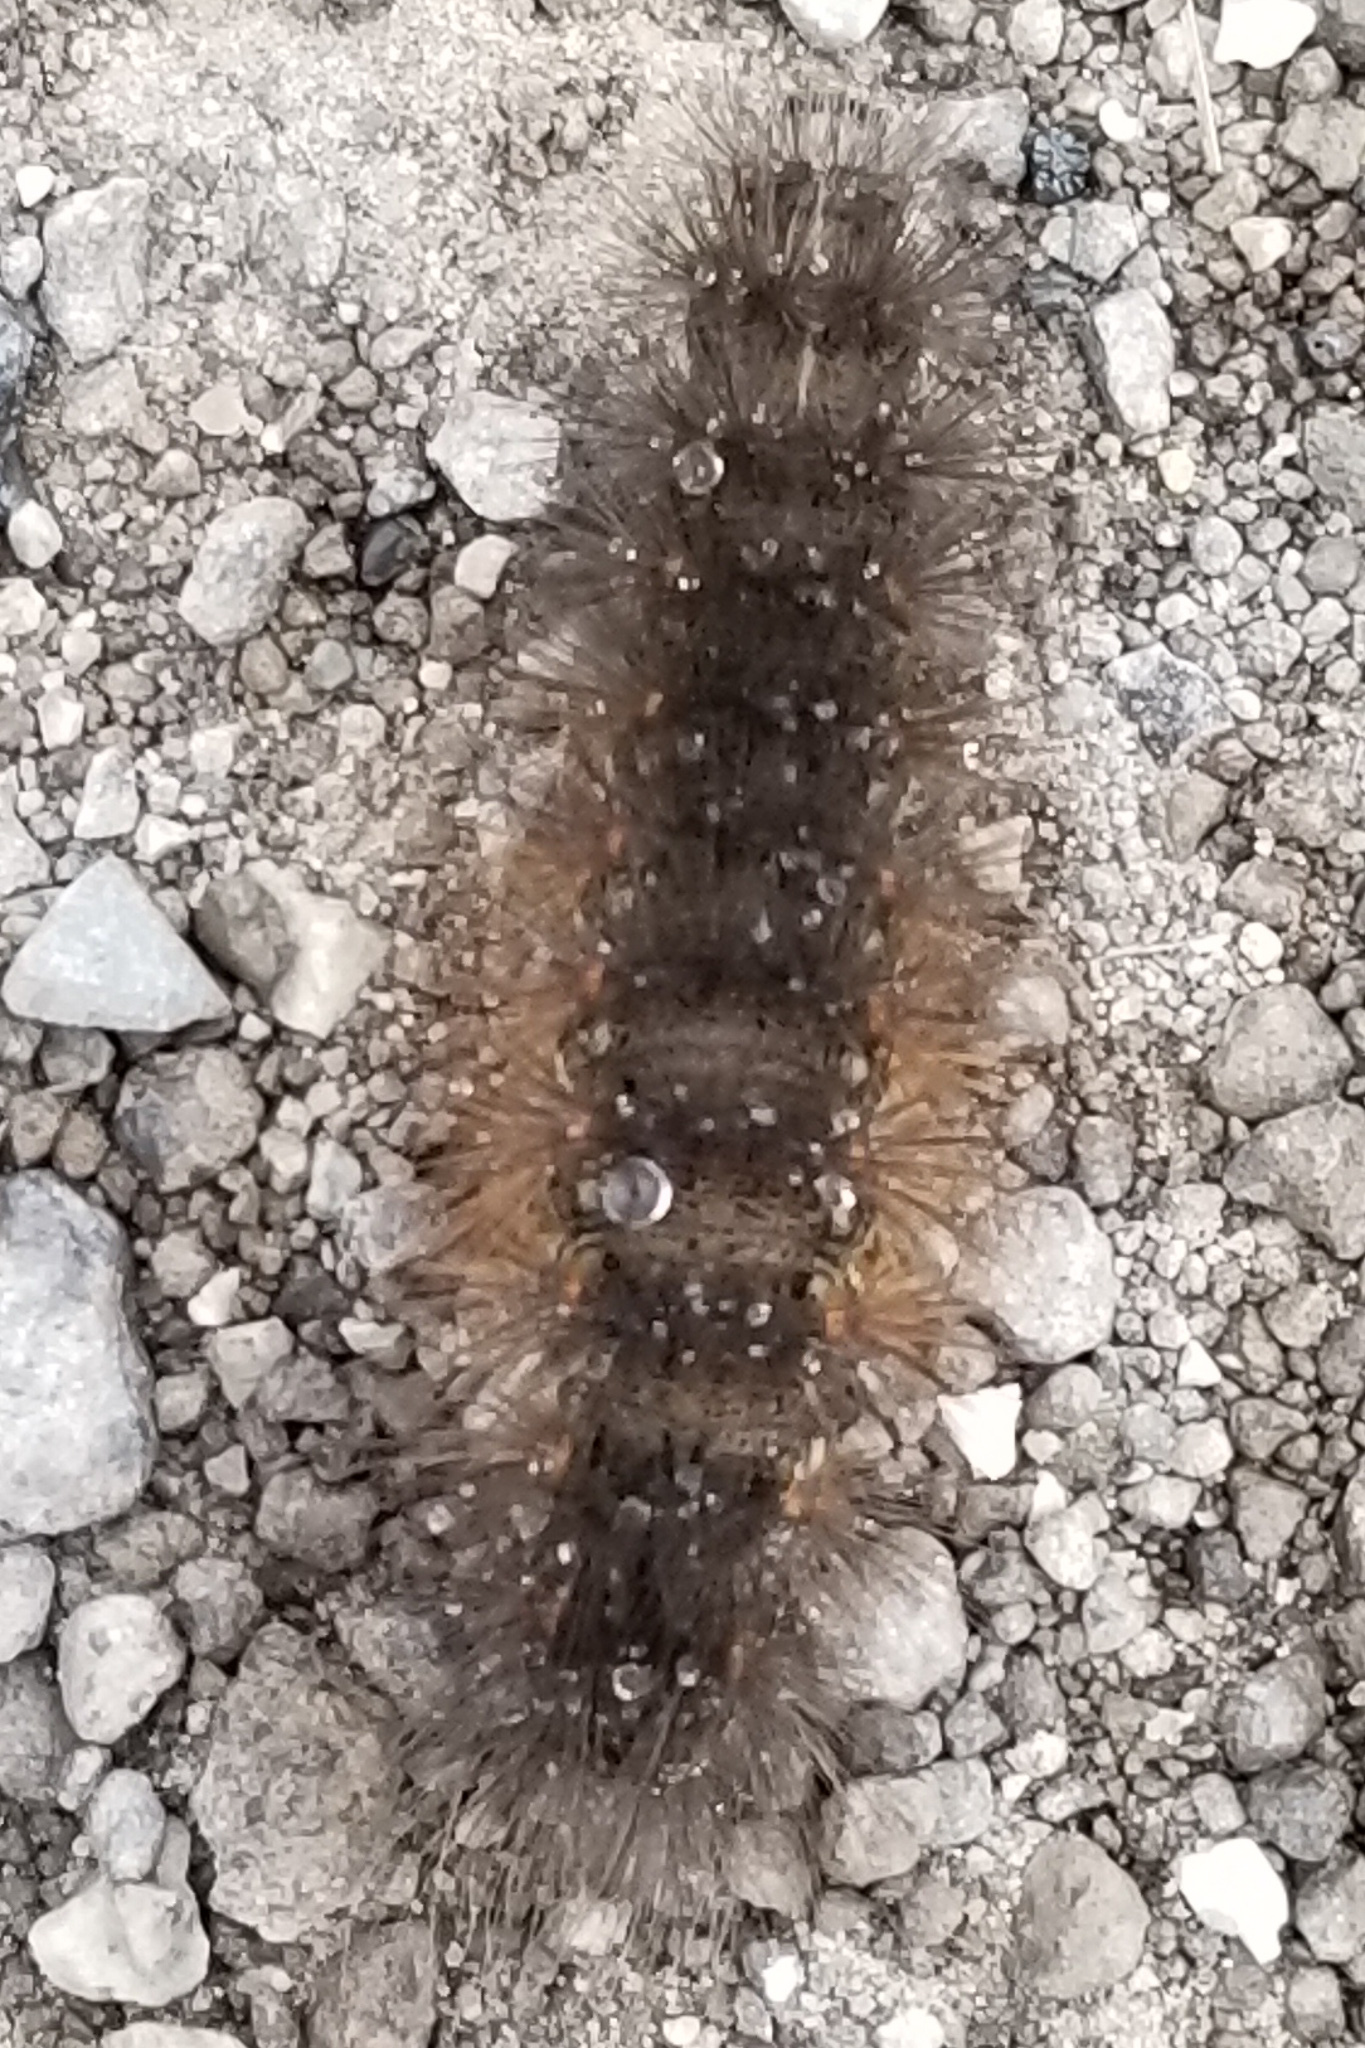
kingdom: Animalia
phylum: Arthropoda
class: Insecta
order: Lepidoptera
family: Erebidae
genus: Estigmene
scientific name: Estigmene acrea
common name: Salt marsh moth
